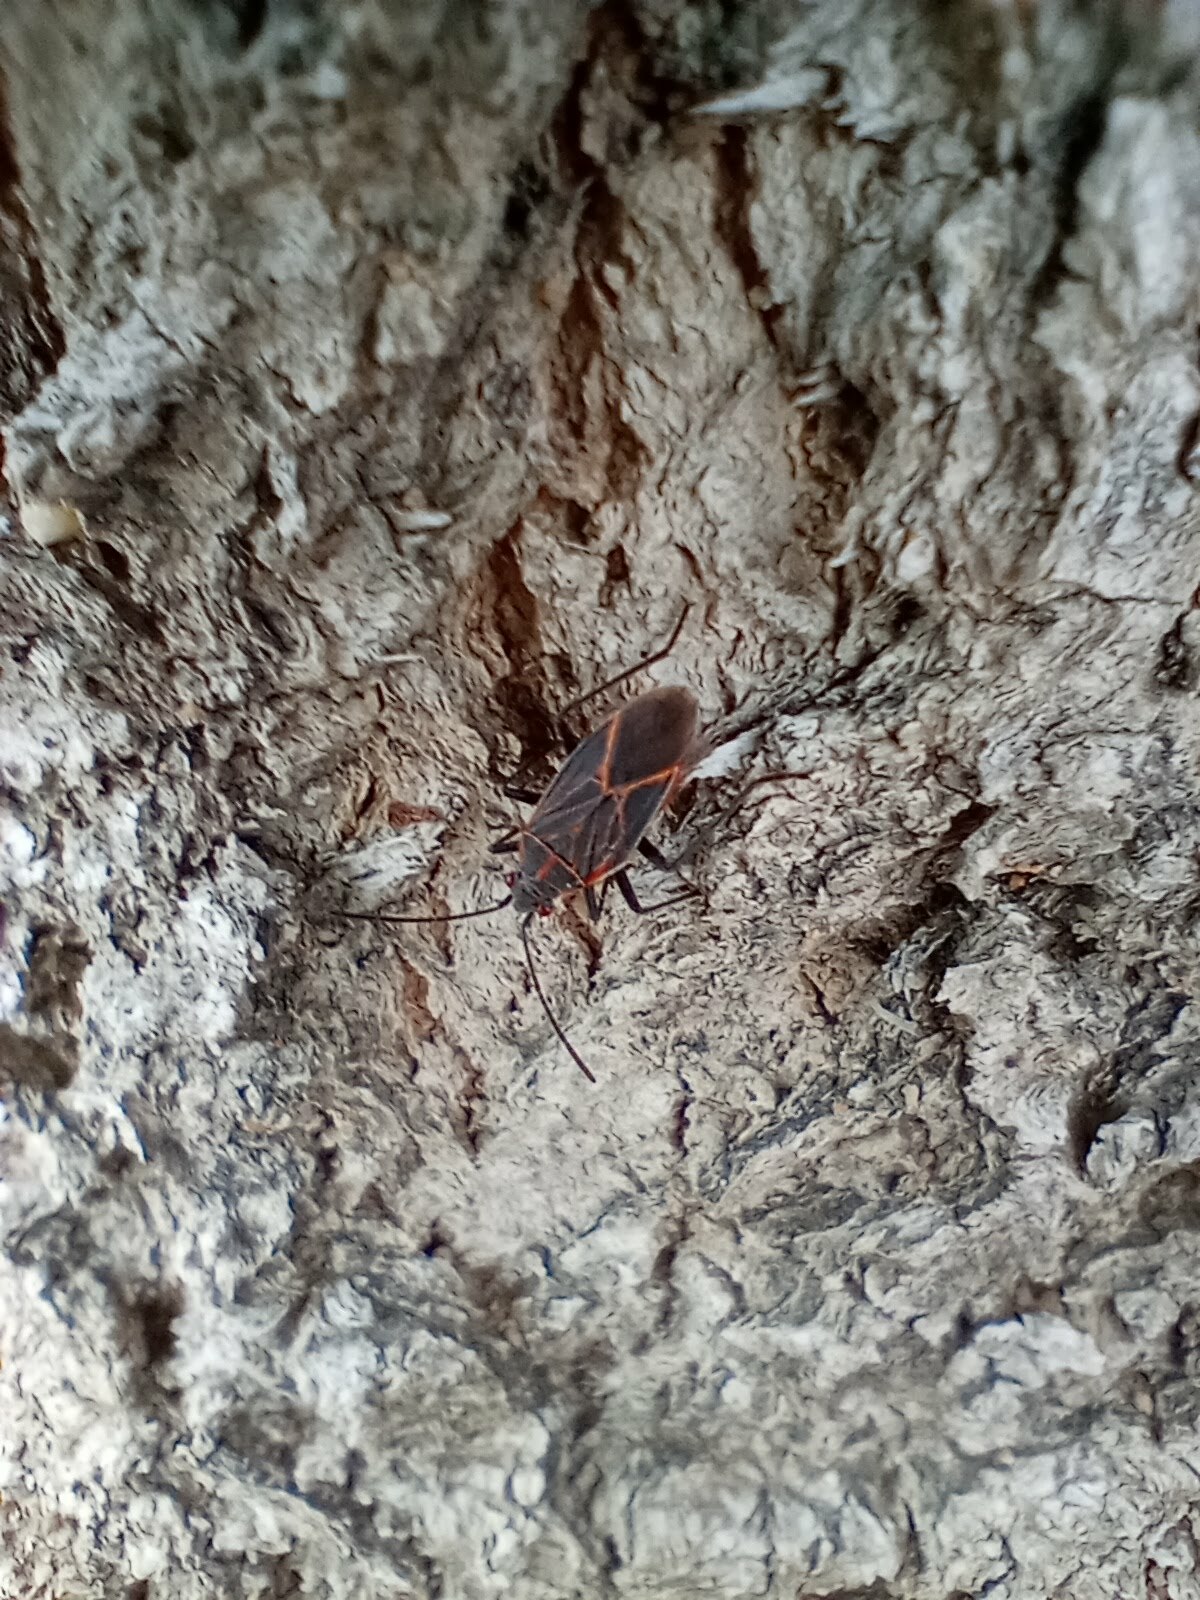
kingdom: Animalia
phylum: Arthropoda
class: Insecta
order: Hemiptera
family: Rhopalidae
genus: Boisea
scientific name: Boisea rubrolineata
